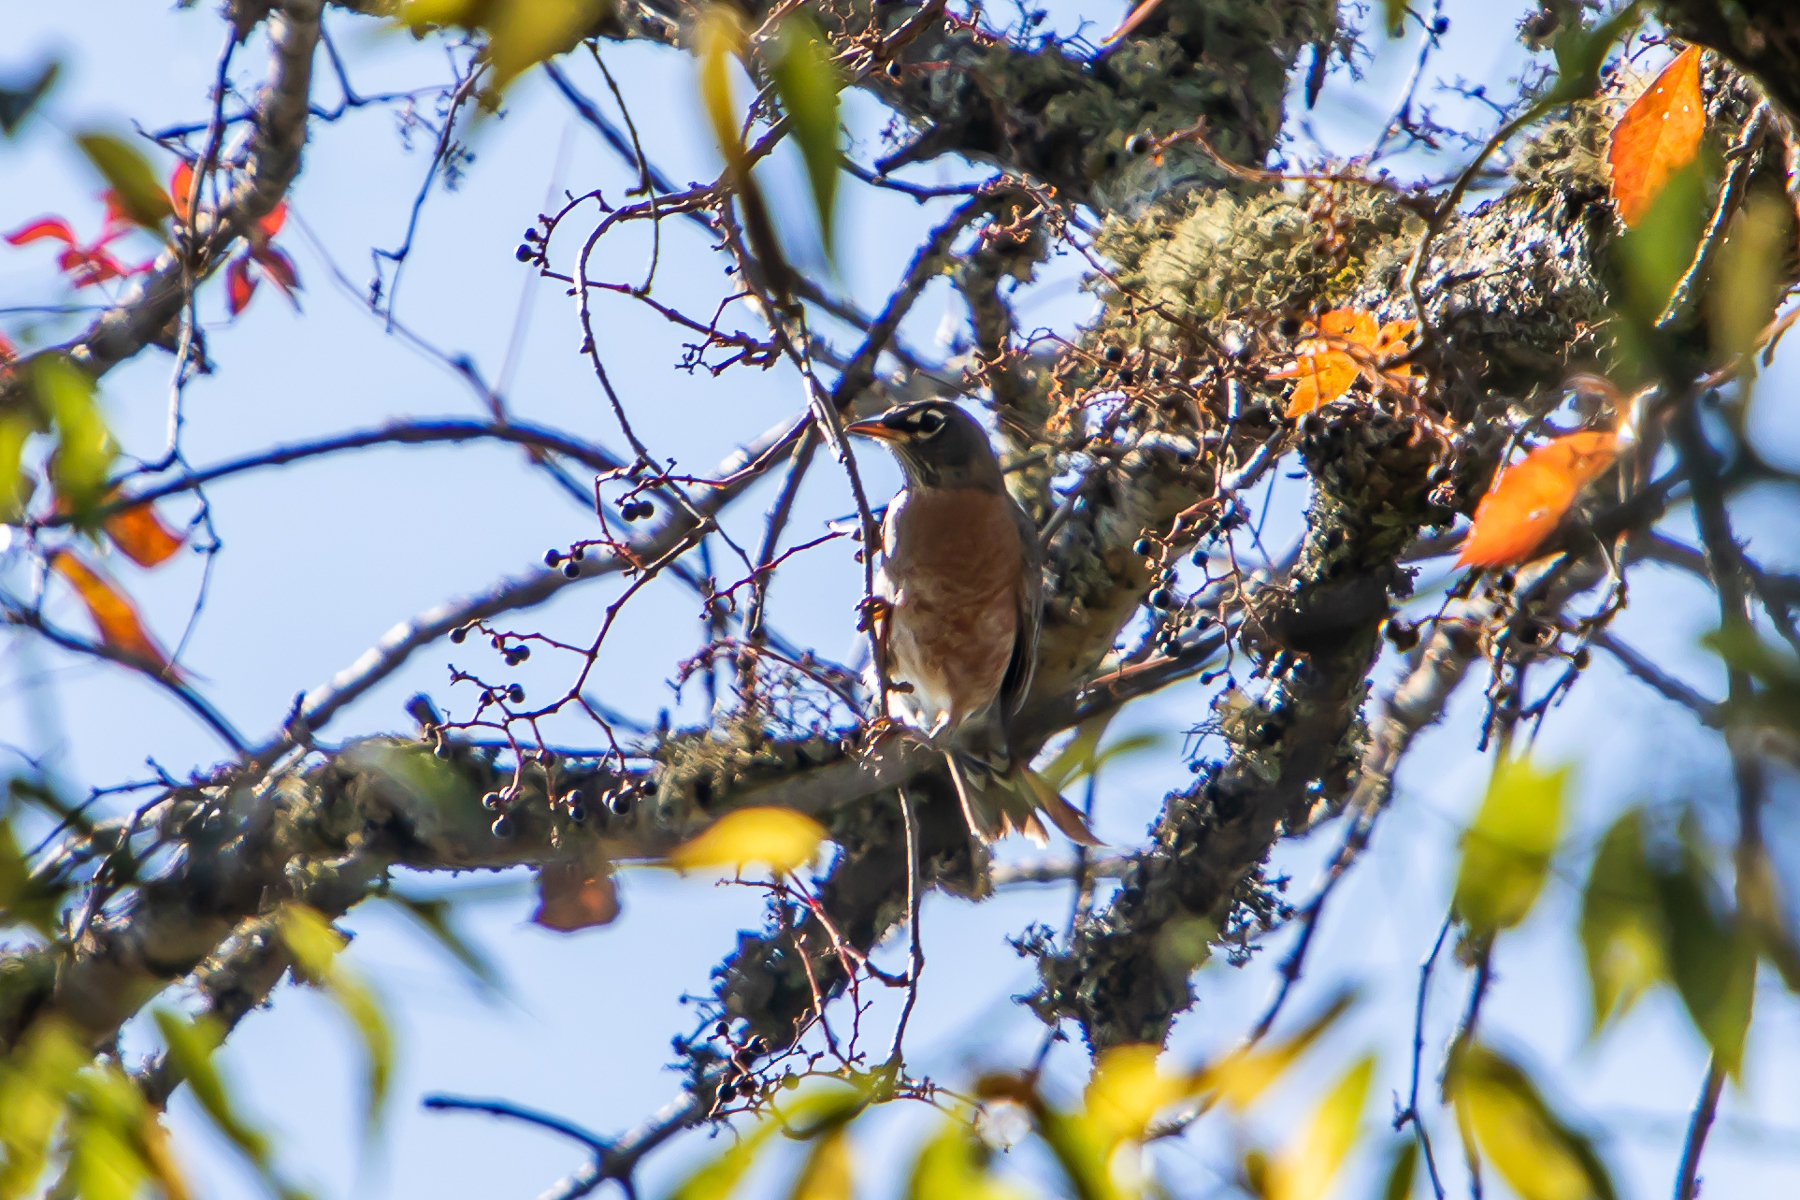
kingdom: Animalia
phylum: Chordata
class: Aves
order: Passeriformes
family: Turdidae
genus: Turdus
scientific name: Turdus migratorius
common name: American robin
